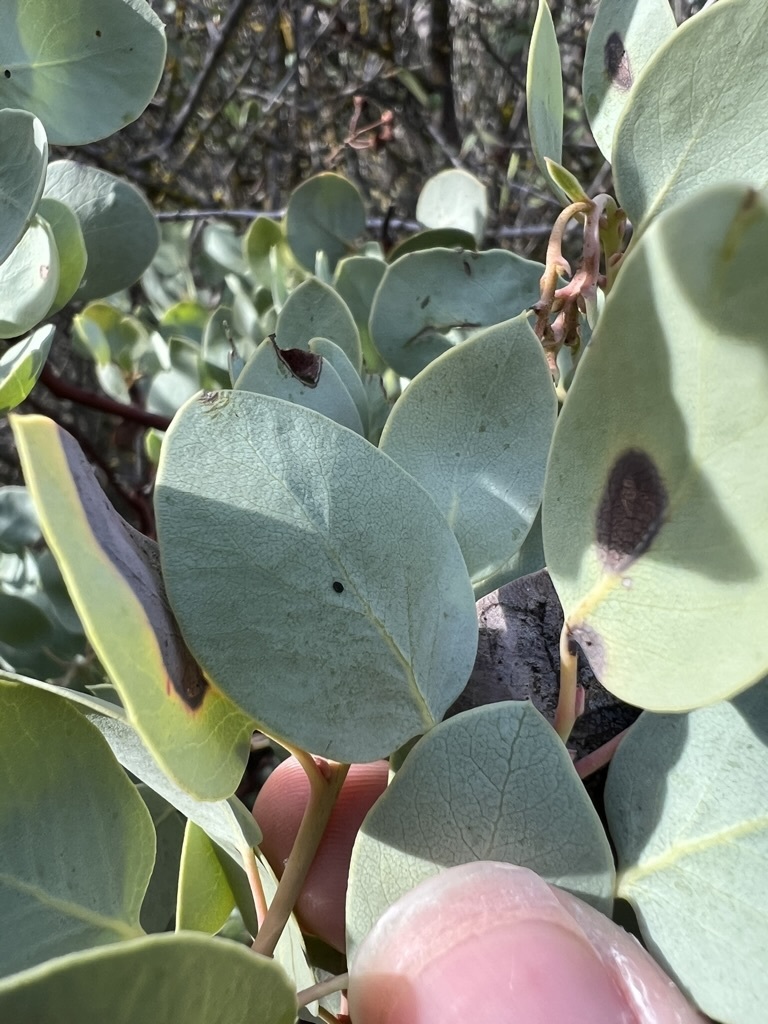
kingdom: Plantae
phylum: Tracheophyta
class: Magnoliopsida
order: Ericales
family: Ericaceae
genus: Arctostaphylos
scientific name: Arctostaphylos glauca
